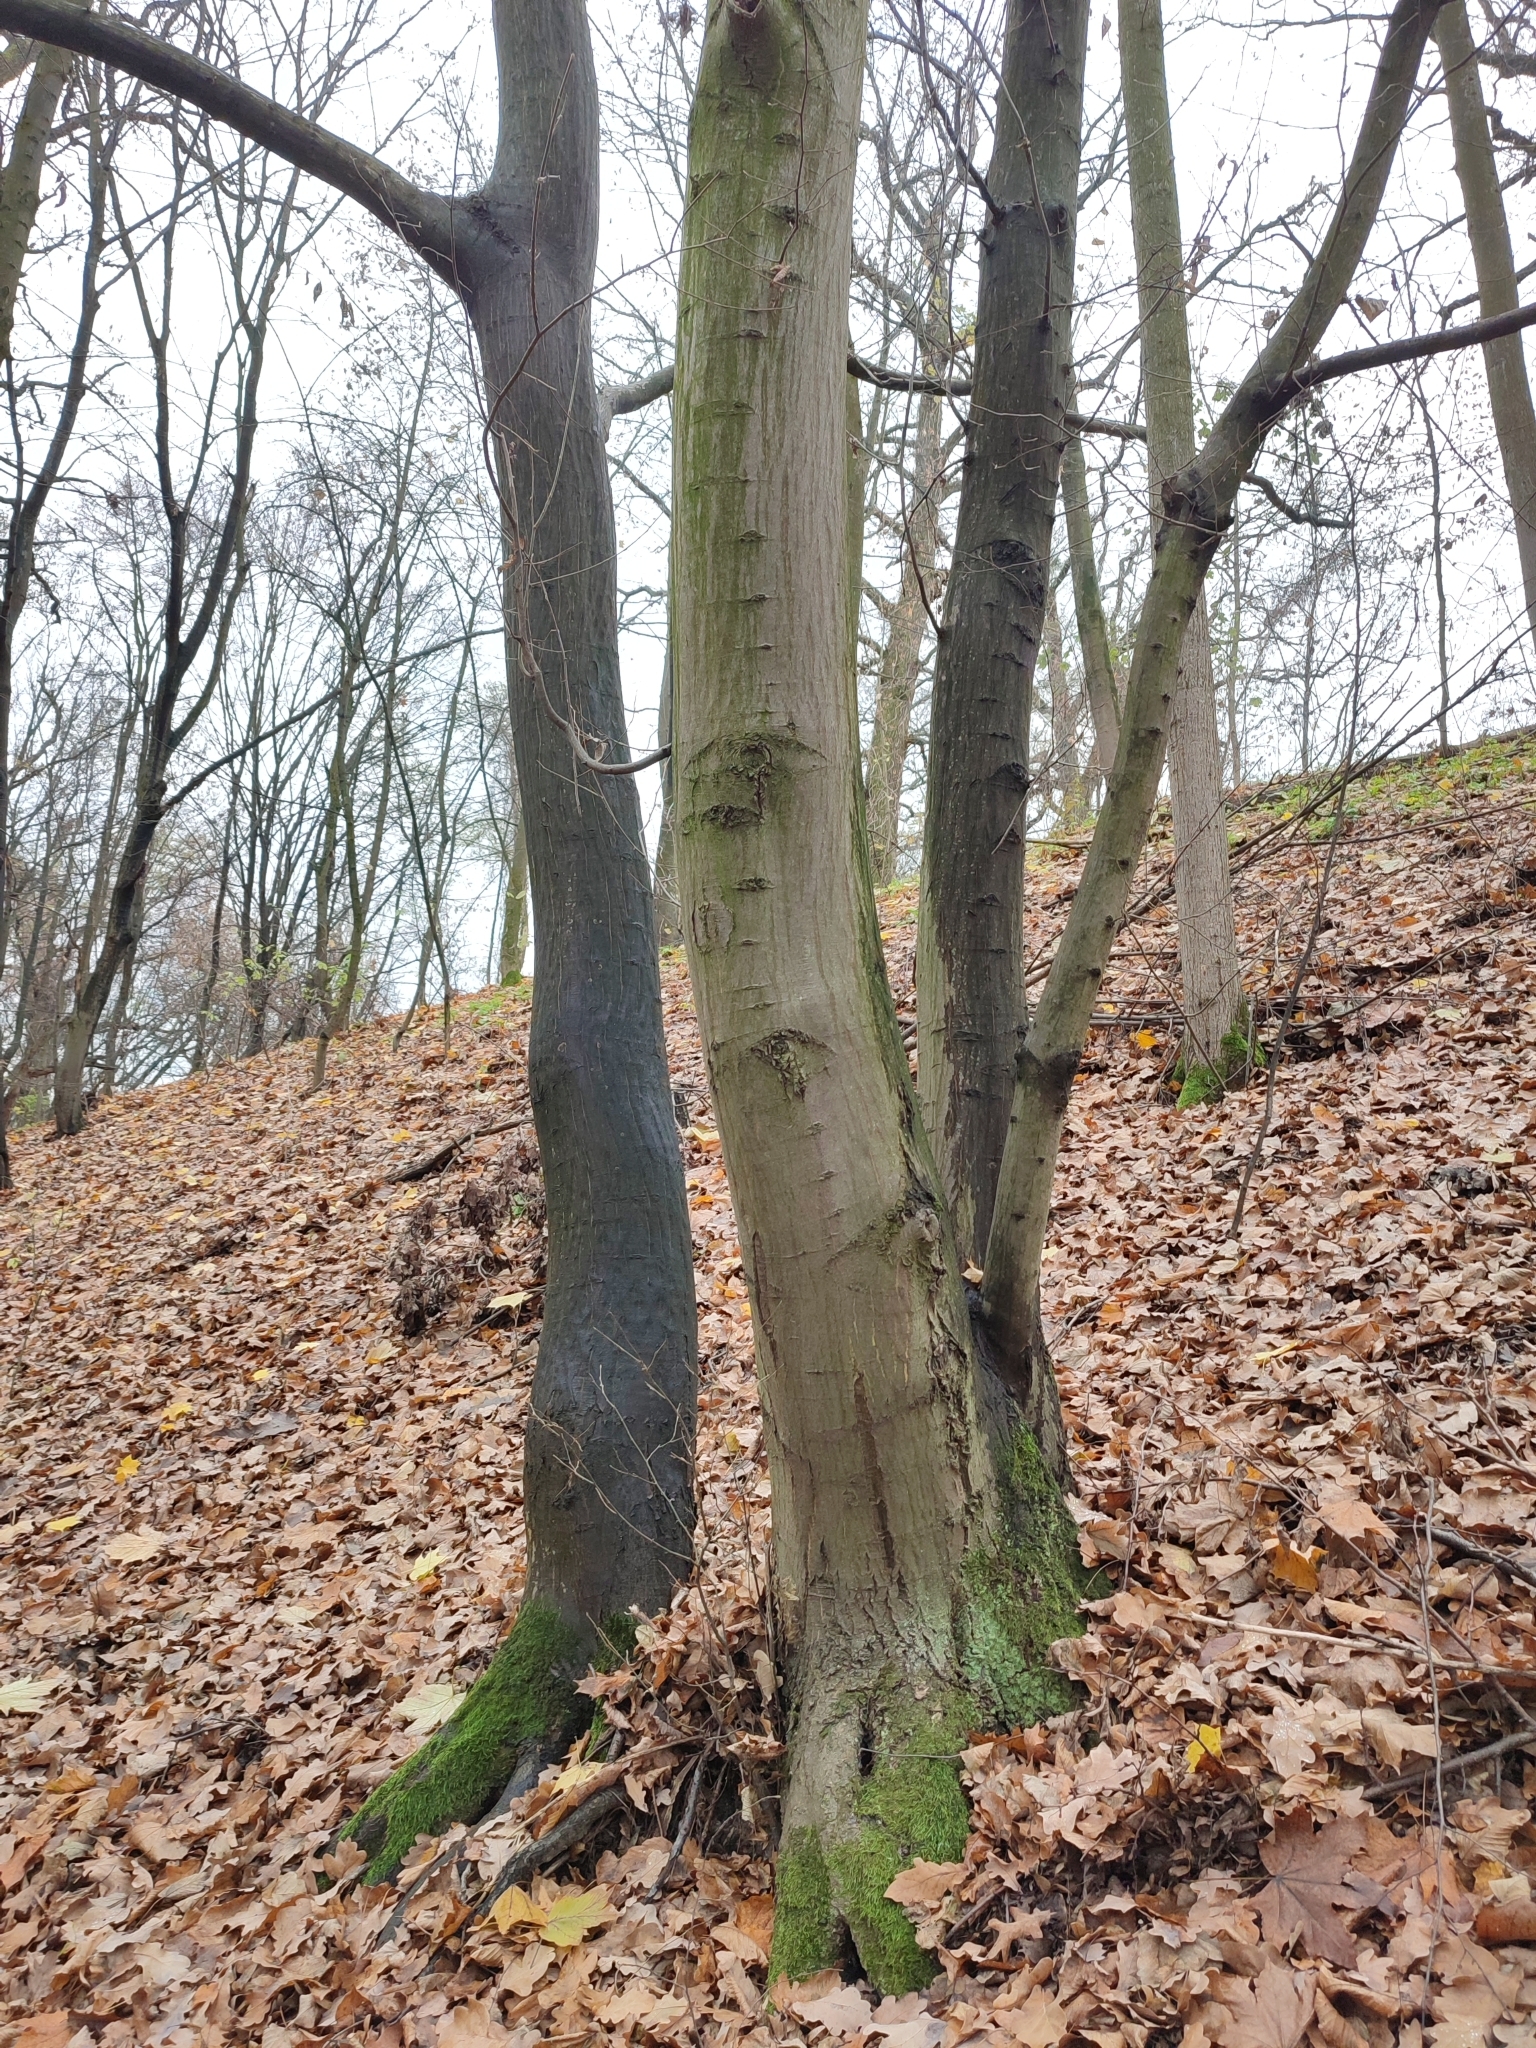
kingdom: Plantae
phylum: Tracheophyta
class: Magnoliopsida
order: Fagales
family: Betulaceae
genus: Carpinus
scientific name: Carpinus betulus
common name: Hornbeam
